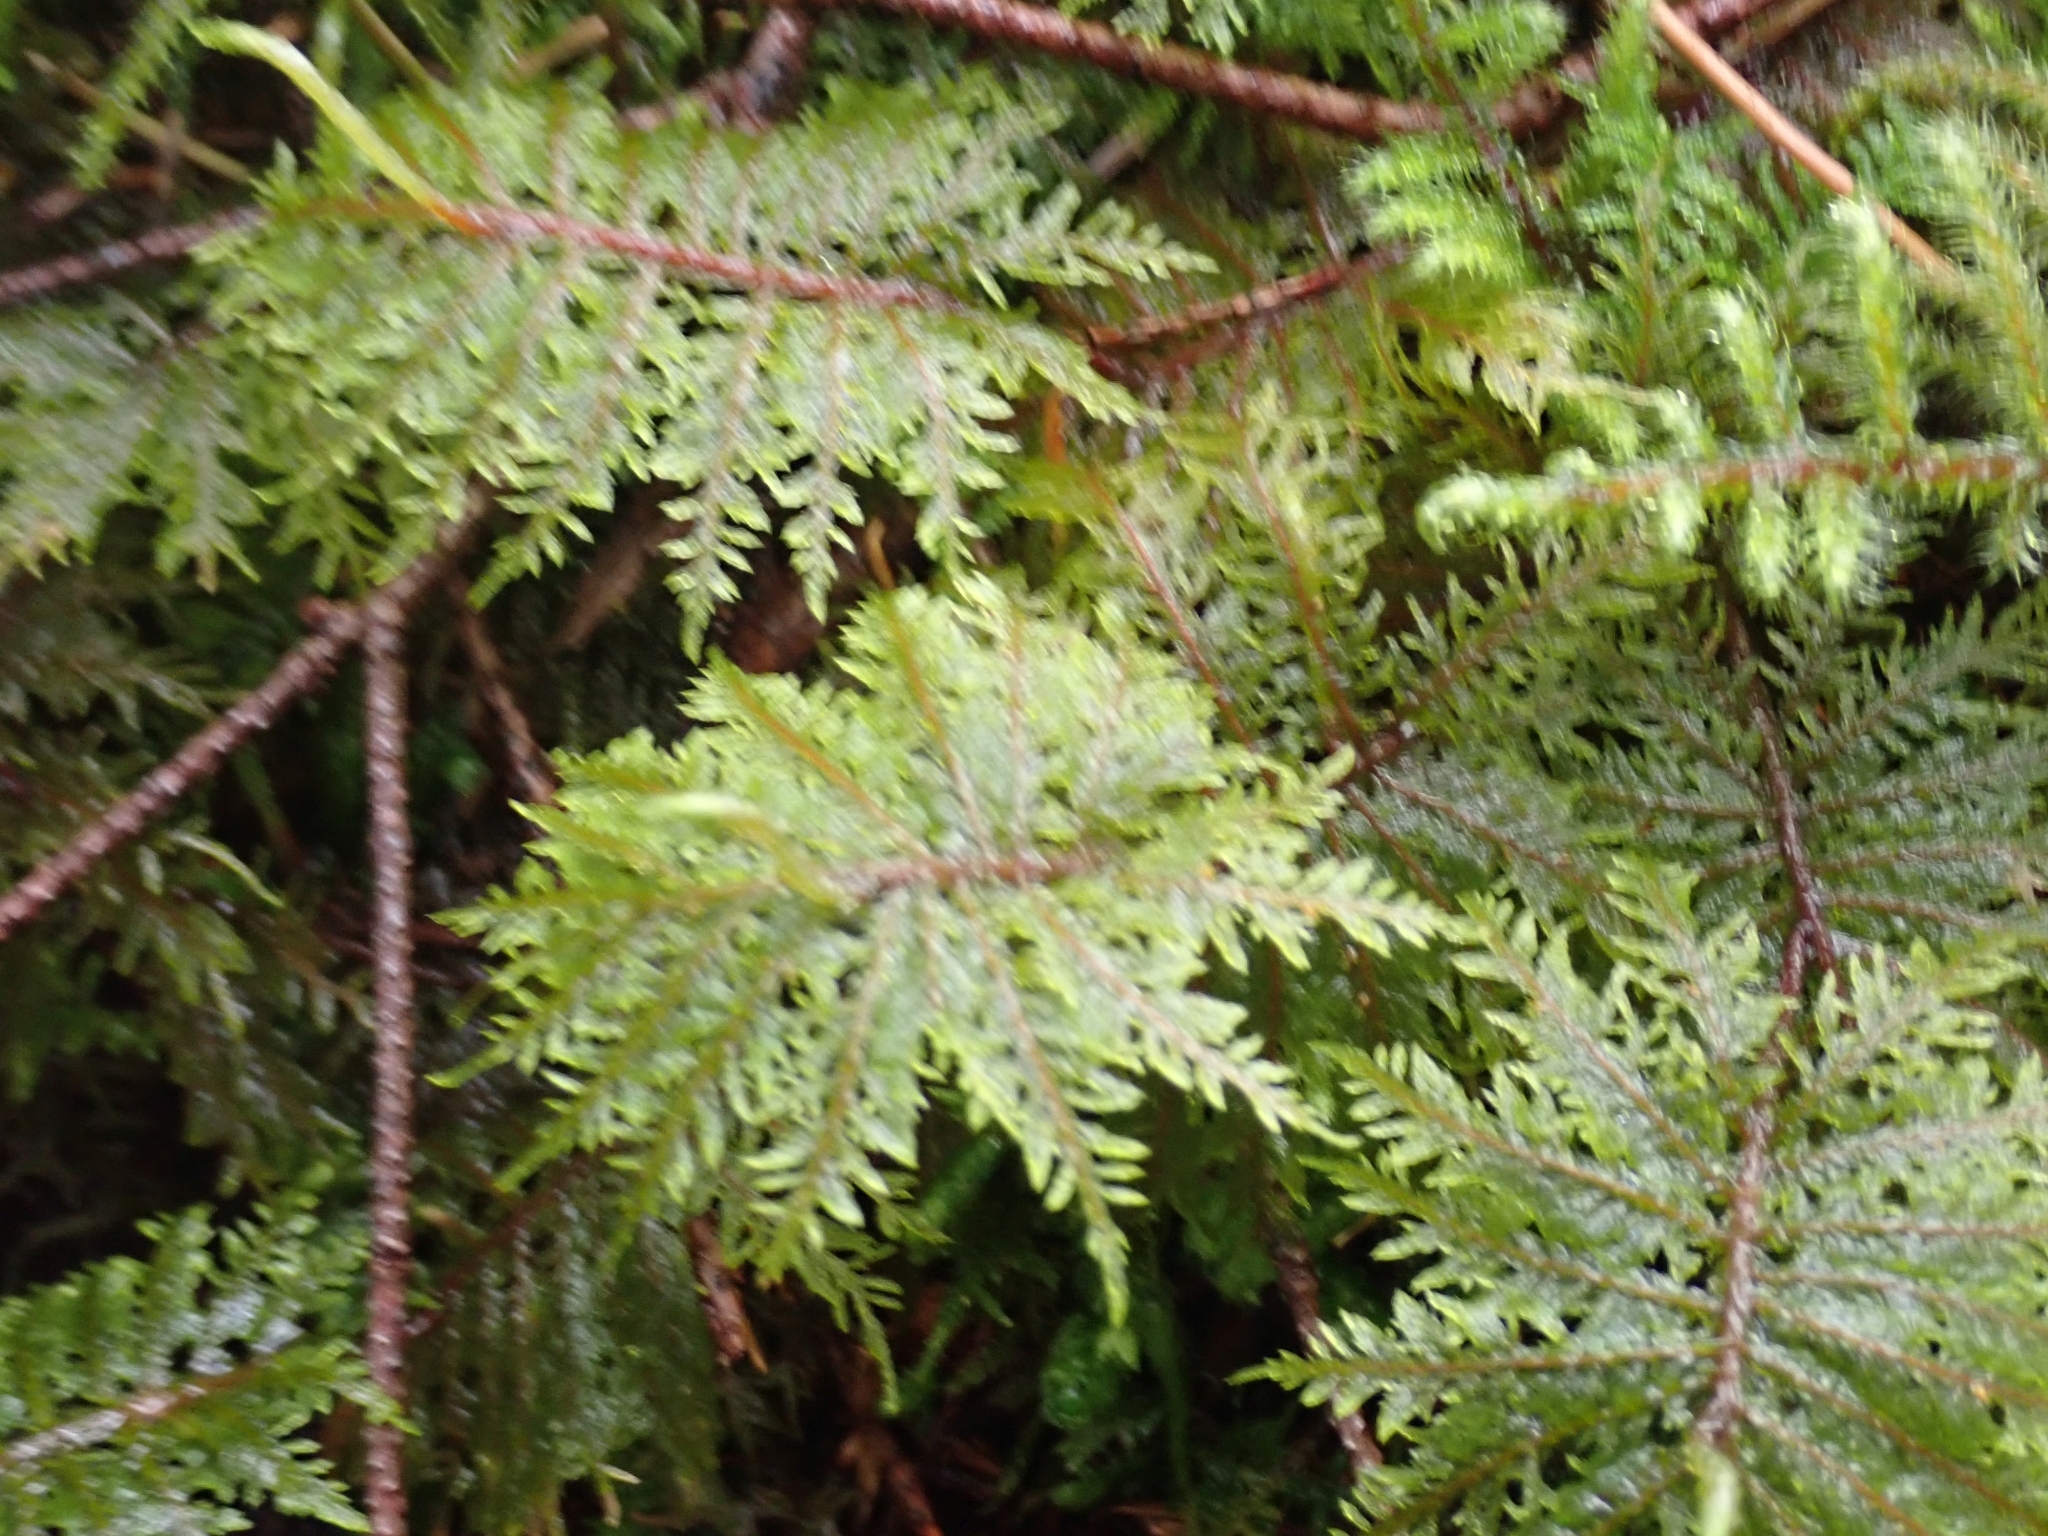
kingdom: Plantae
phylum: Bryophyta
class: Bryopsida
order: Hypnales
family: Hylocomiaceae
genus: Hylocomium
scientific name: Hylocomium splendens
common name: Stairstep moss
